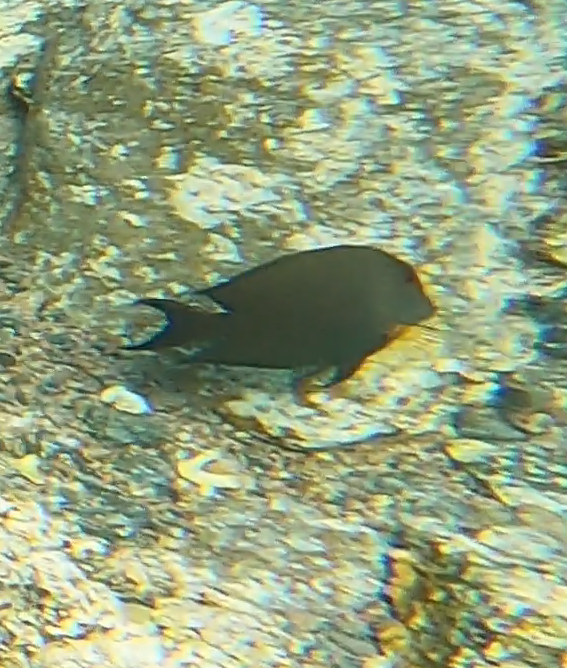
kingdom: Animalia
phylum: Chordata
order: Perciformes
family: Acanthuridae
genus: Ctenochaetus
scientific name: Ctenochaetus striatus
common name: Bristle-toothed surgeonfish
